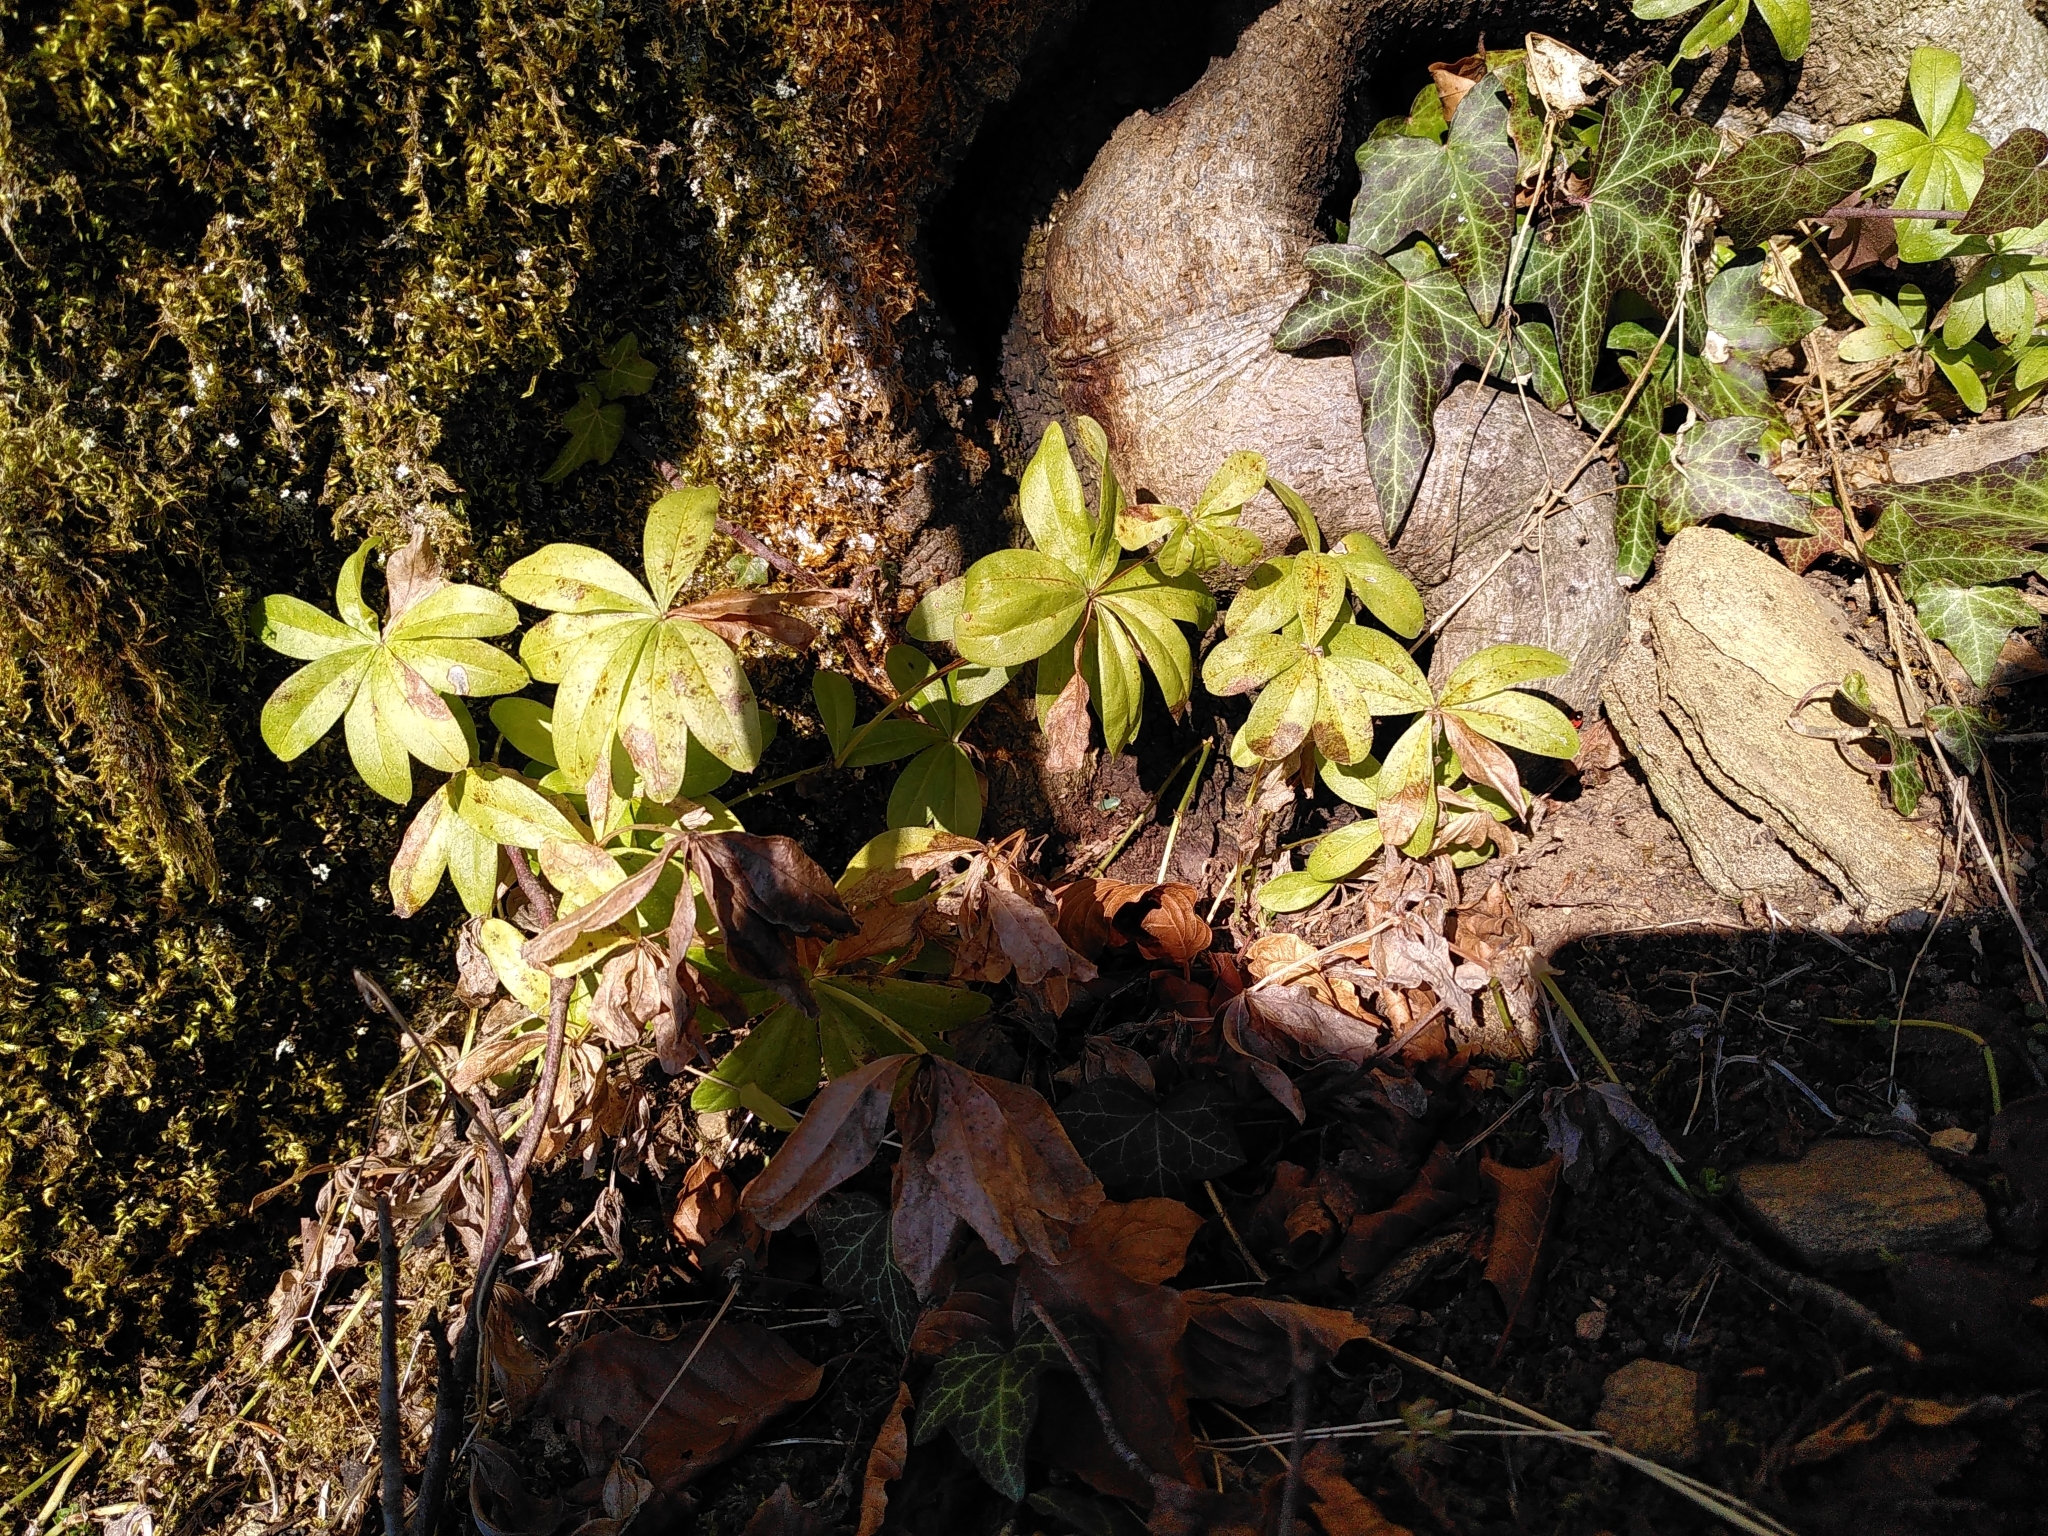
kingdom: Plantae
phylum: Tracheophyta
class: Magnoliopsida
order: Gentianales
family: Rubiaceae
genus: Galium
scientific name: Galium odoratum
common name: Sweet woodruff
